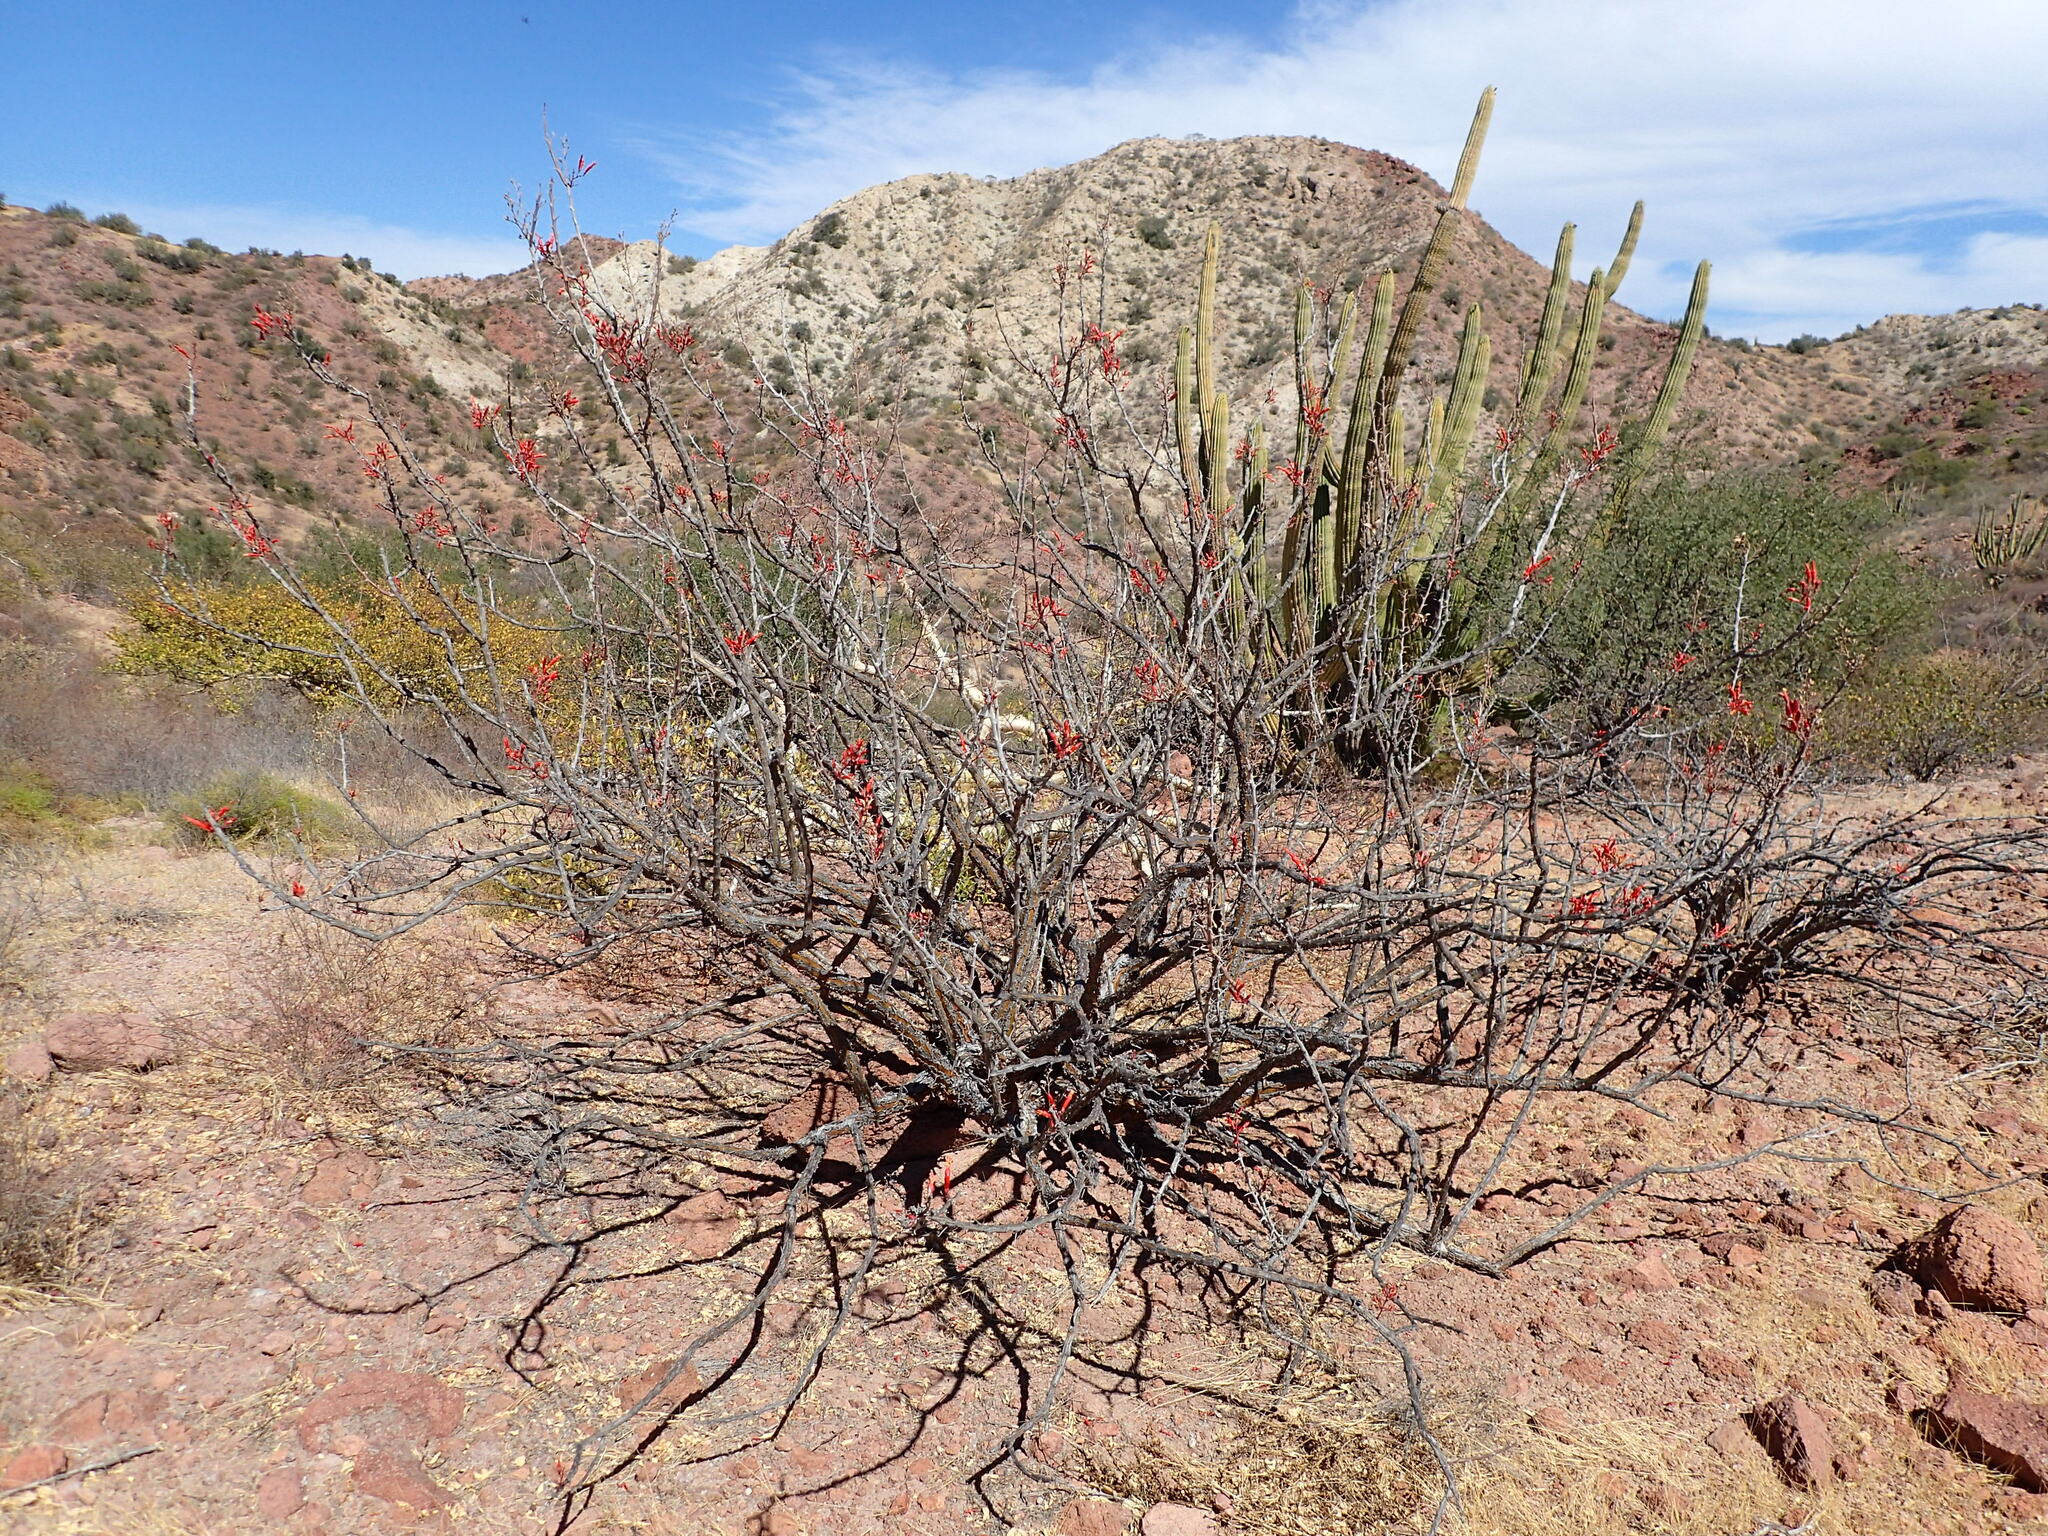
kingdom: Plantae
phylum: Tracheophyta
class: Magnoliopsida
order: Ericales
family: Fouquieriaceae
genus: Fouquieria
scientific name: Fouquieria diguetii
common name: Adam's tree
